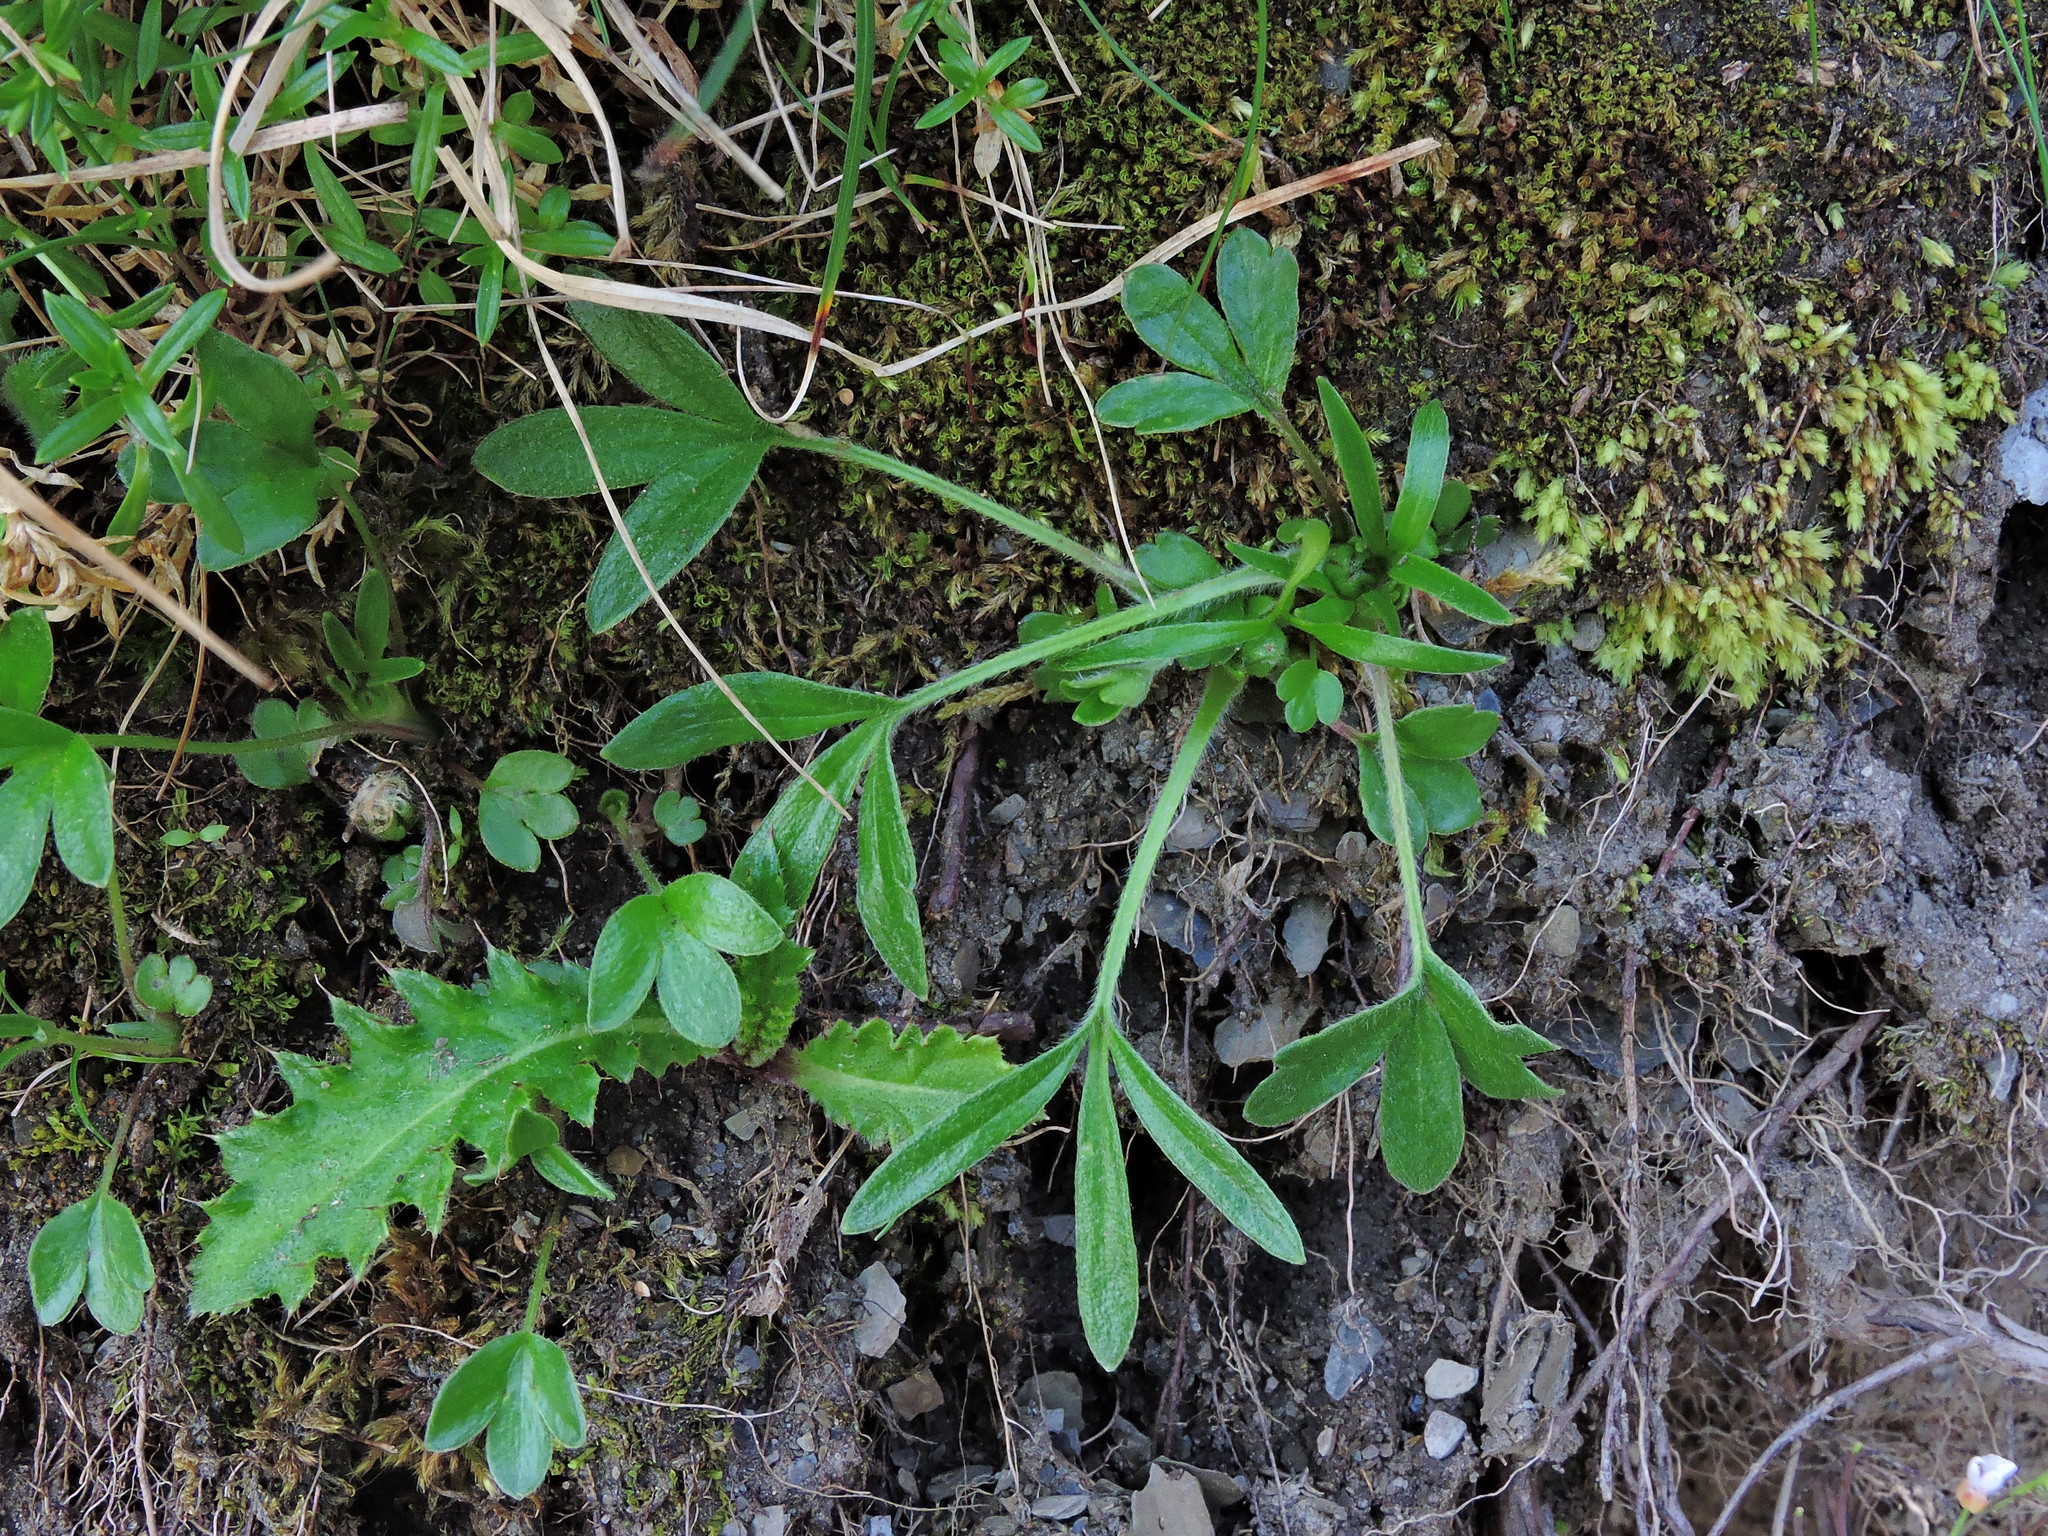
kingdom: Plantae
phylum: Tracheophyta
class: Magnoliopsida
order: Ranunculales
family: Ranunculaceae
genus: Ranunculus
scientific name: Ranunculus junipericola
